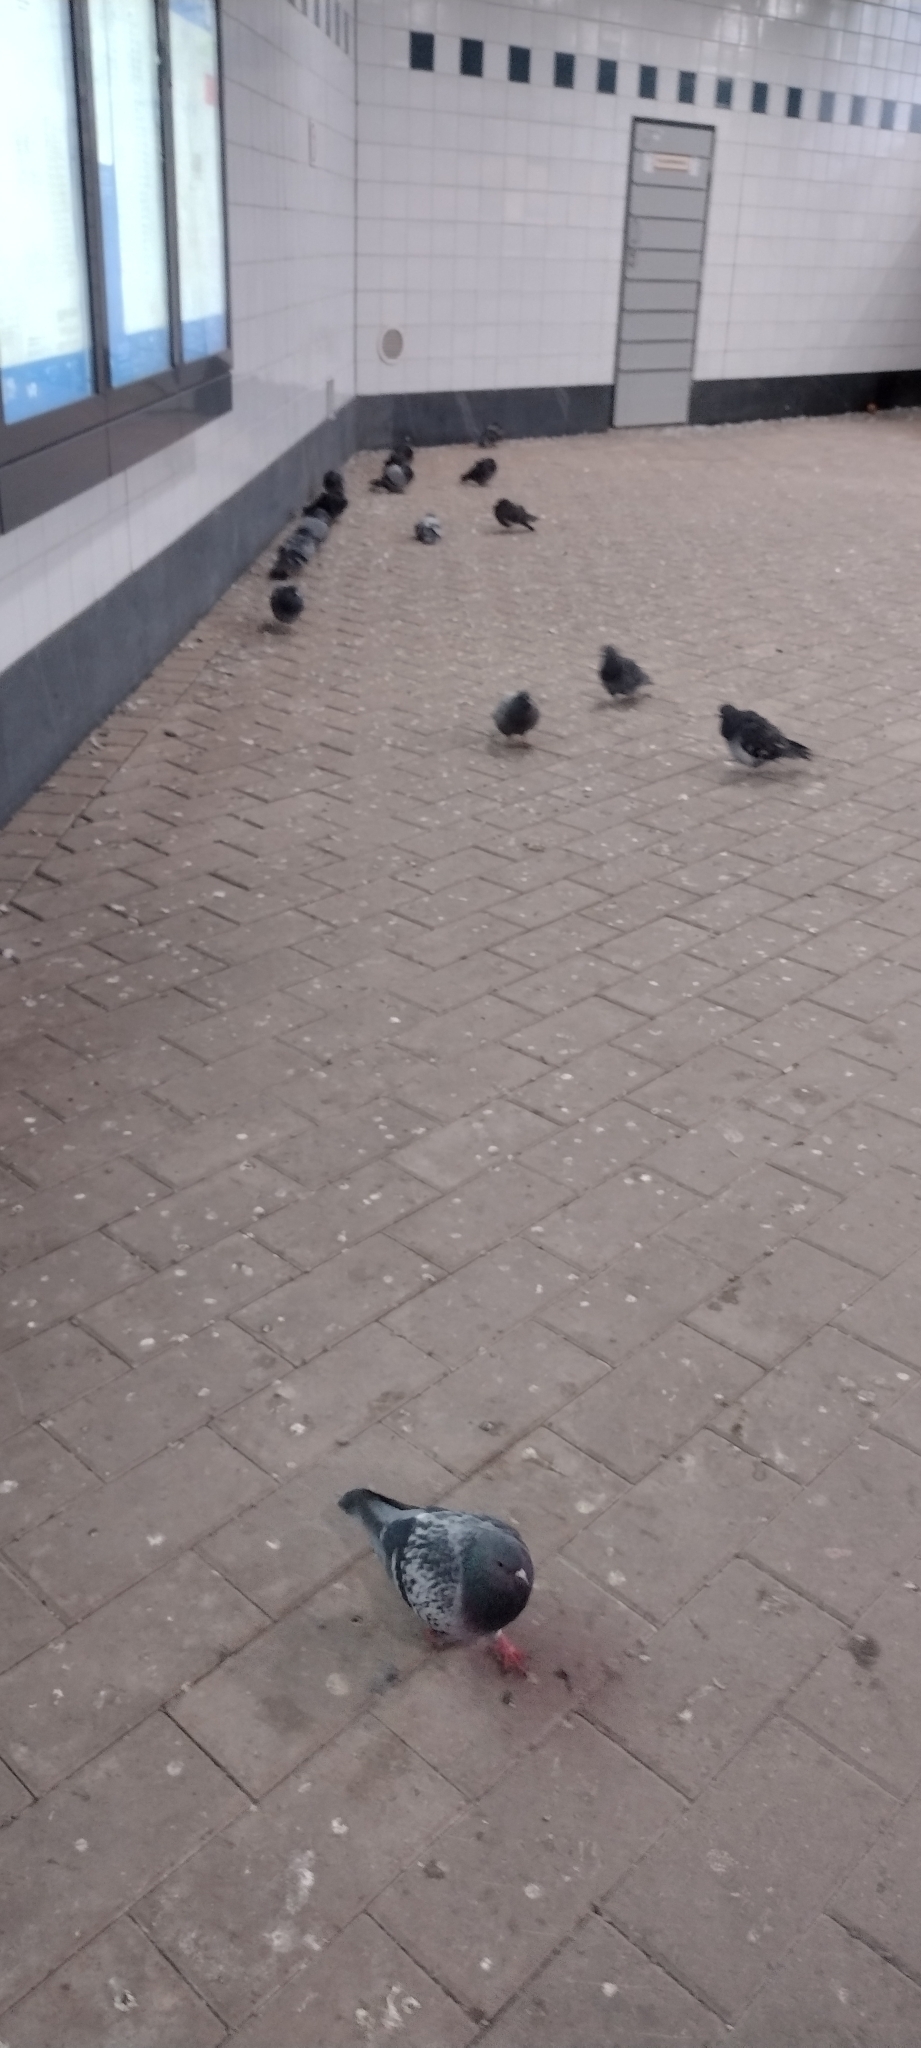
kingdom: Animalia
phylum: Chordata
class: Aves
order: Columbiformes
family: Columbidae
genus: Columba
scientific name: Columba livia
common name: Rock pigeon
